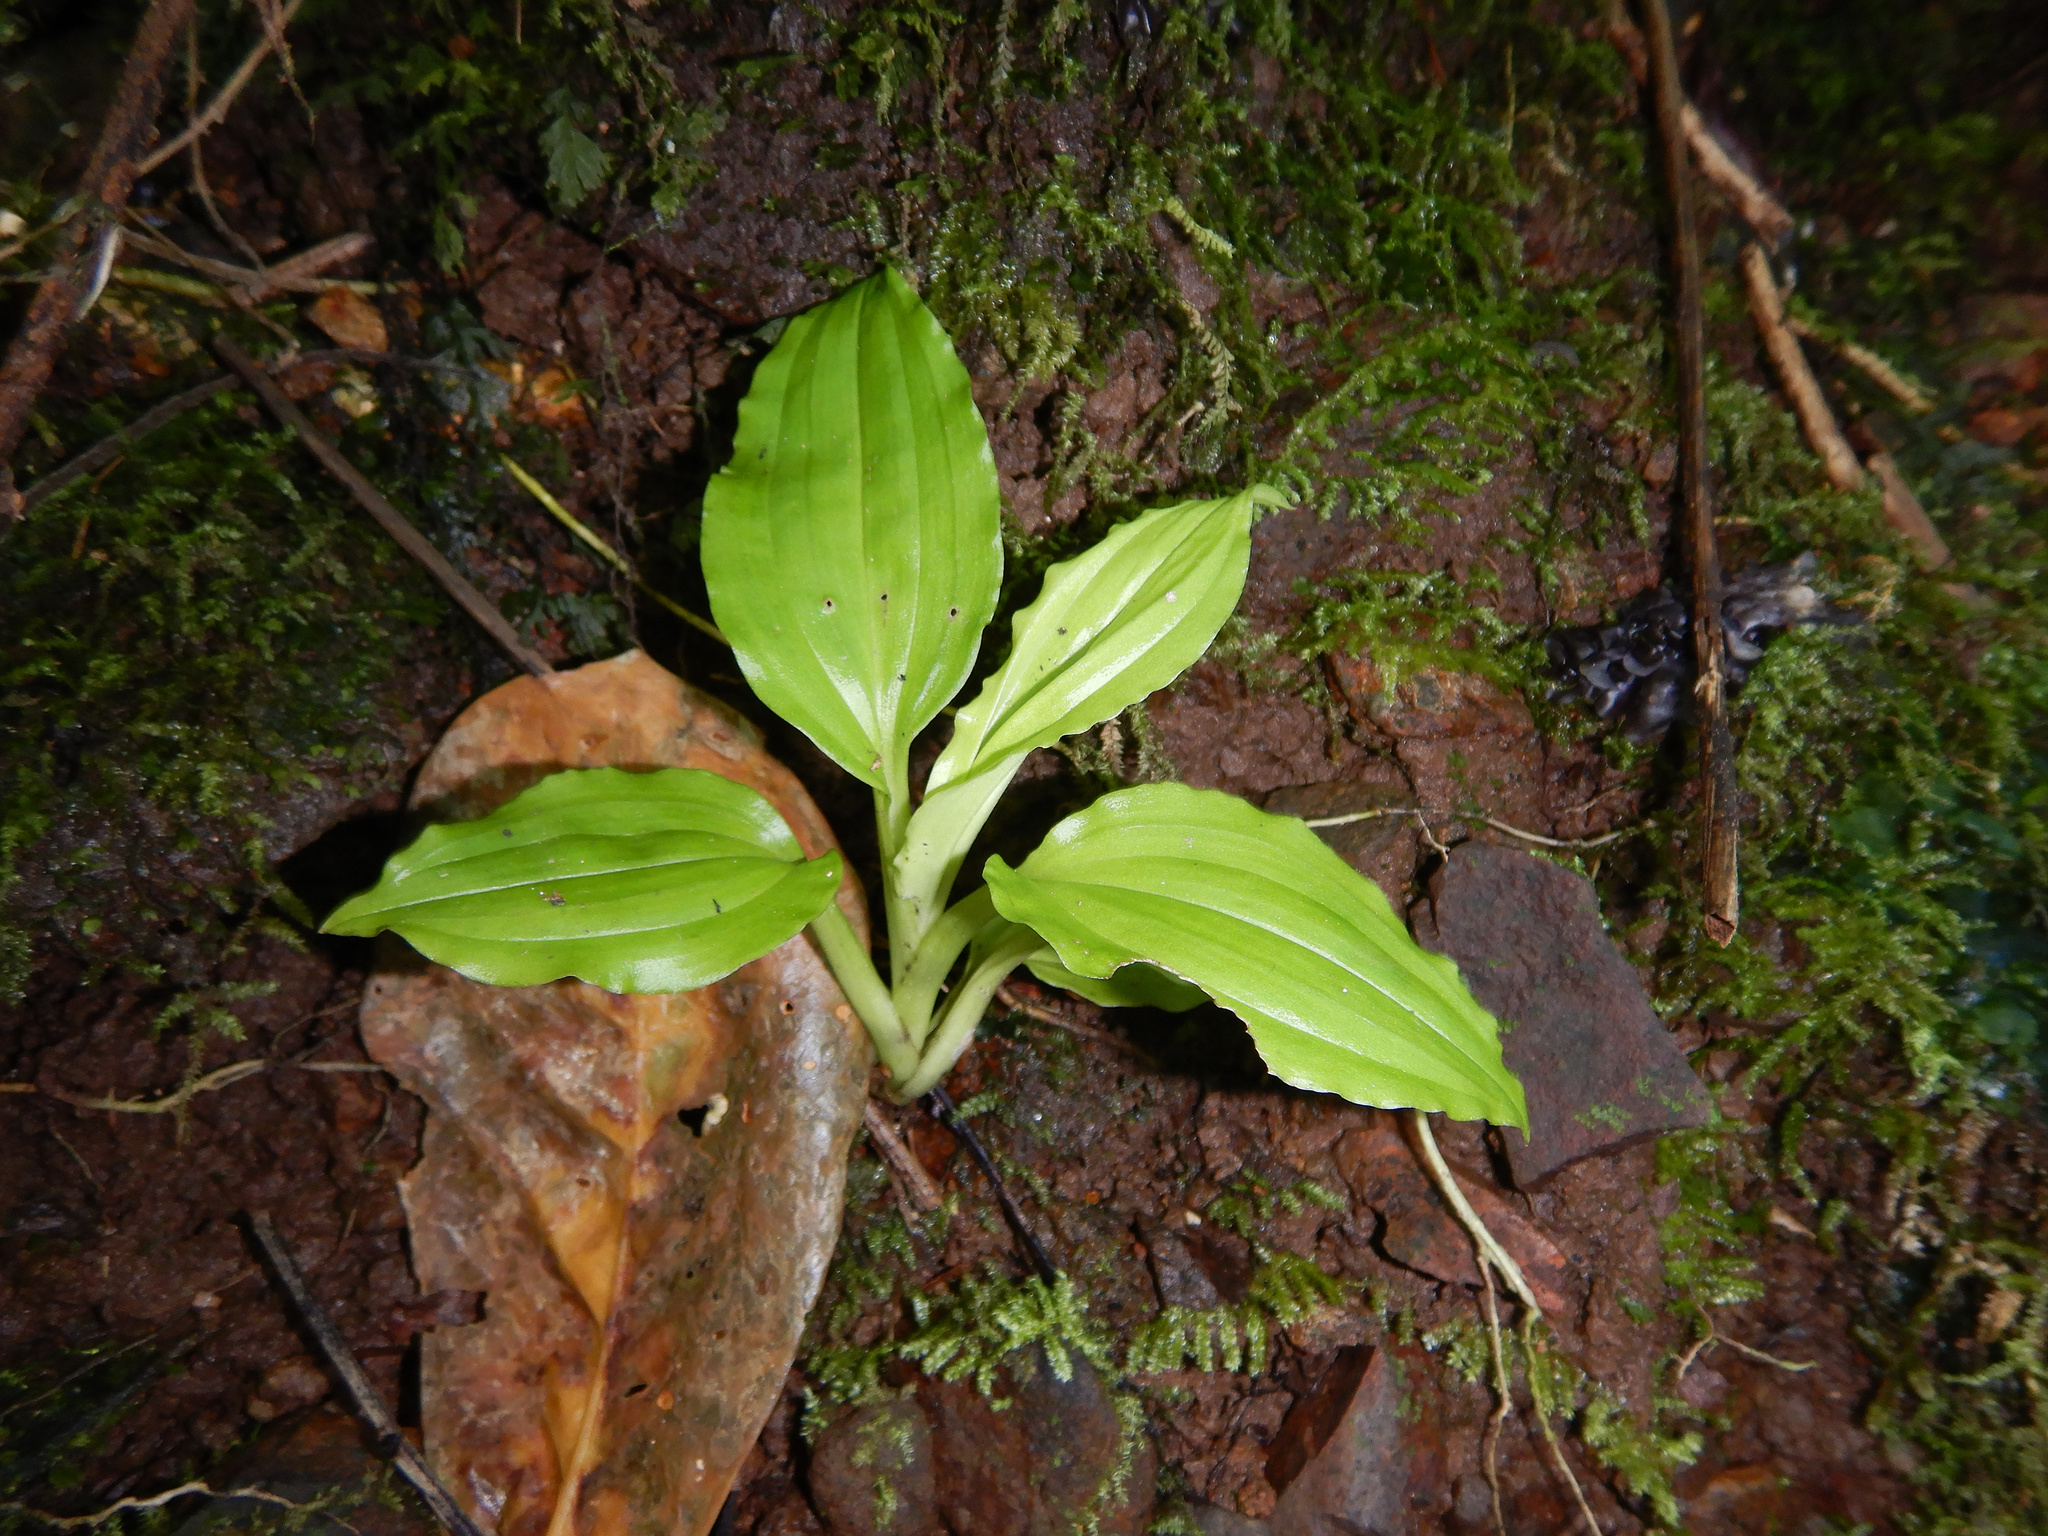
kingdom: Plantae
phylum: Tracheophyta
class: Liliopsida
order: Asparagales
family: Orchidaceae
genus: Crepidium
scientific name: Crepidium resupinatum
